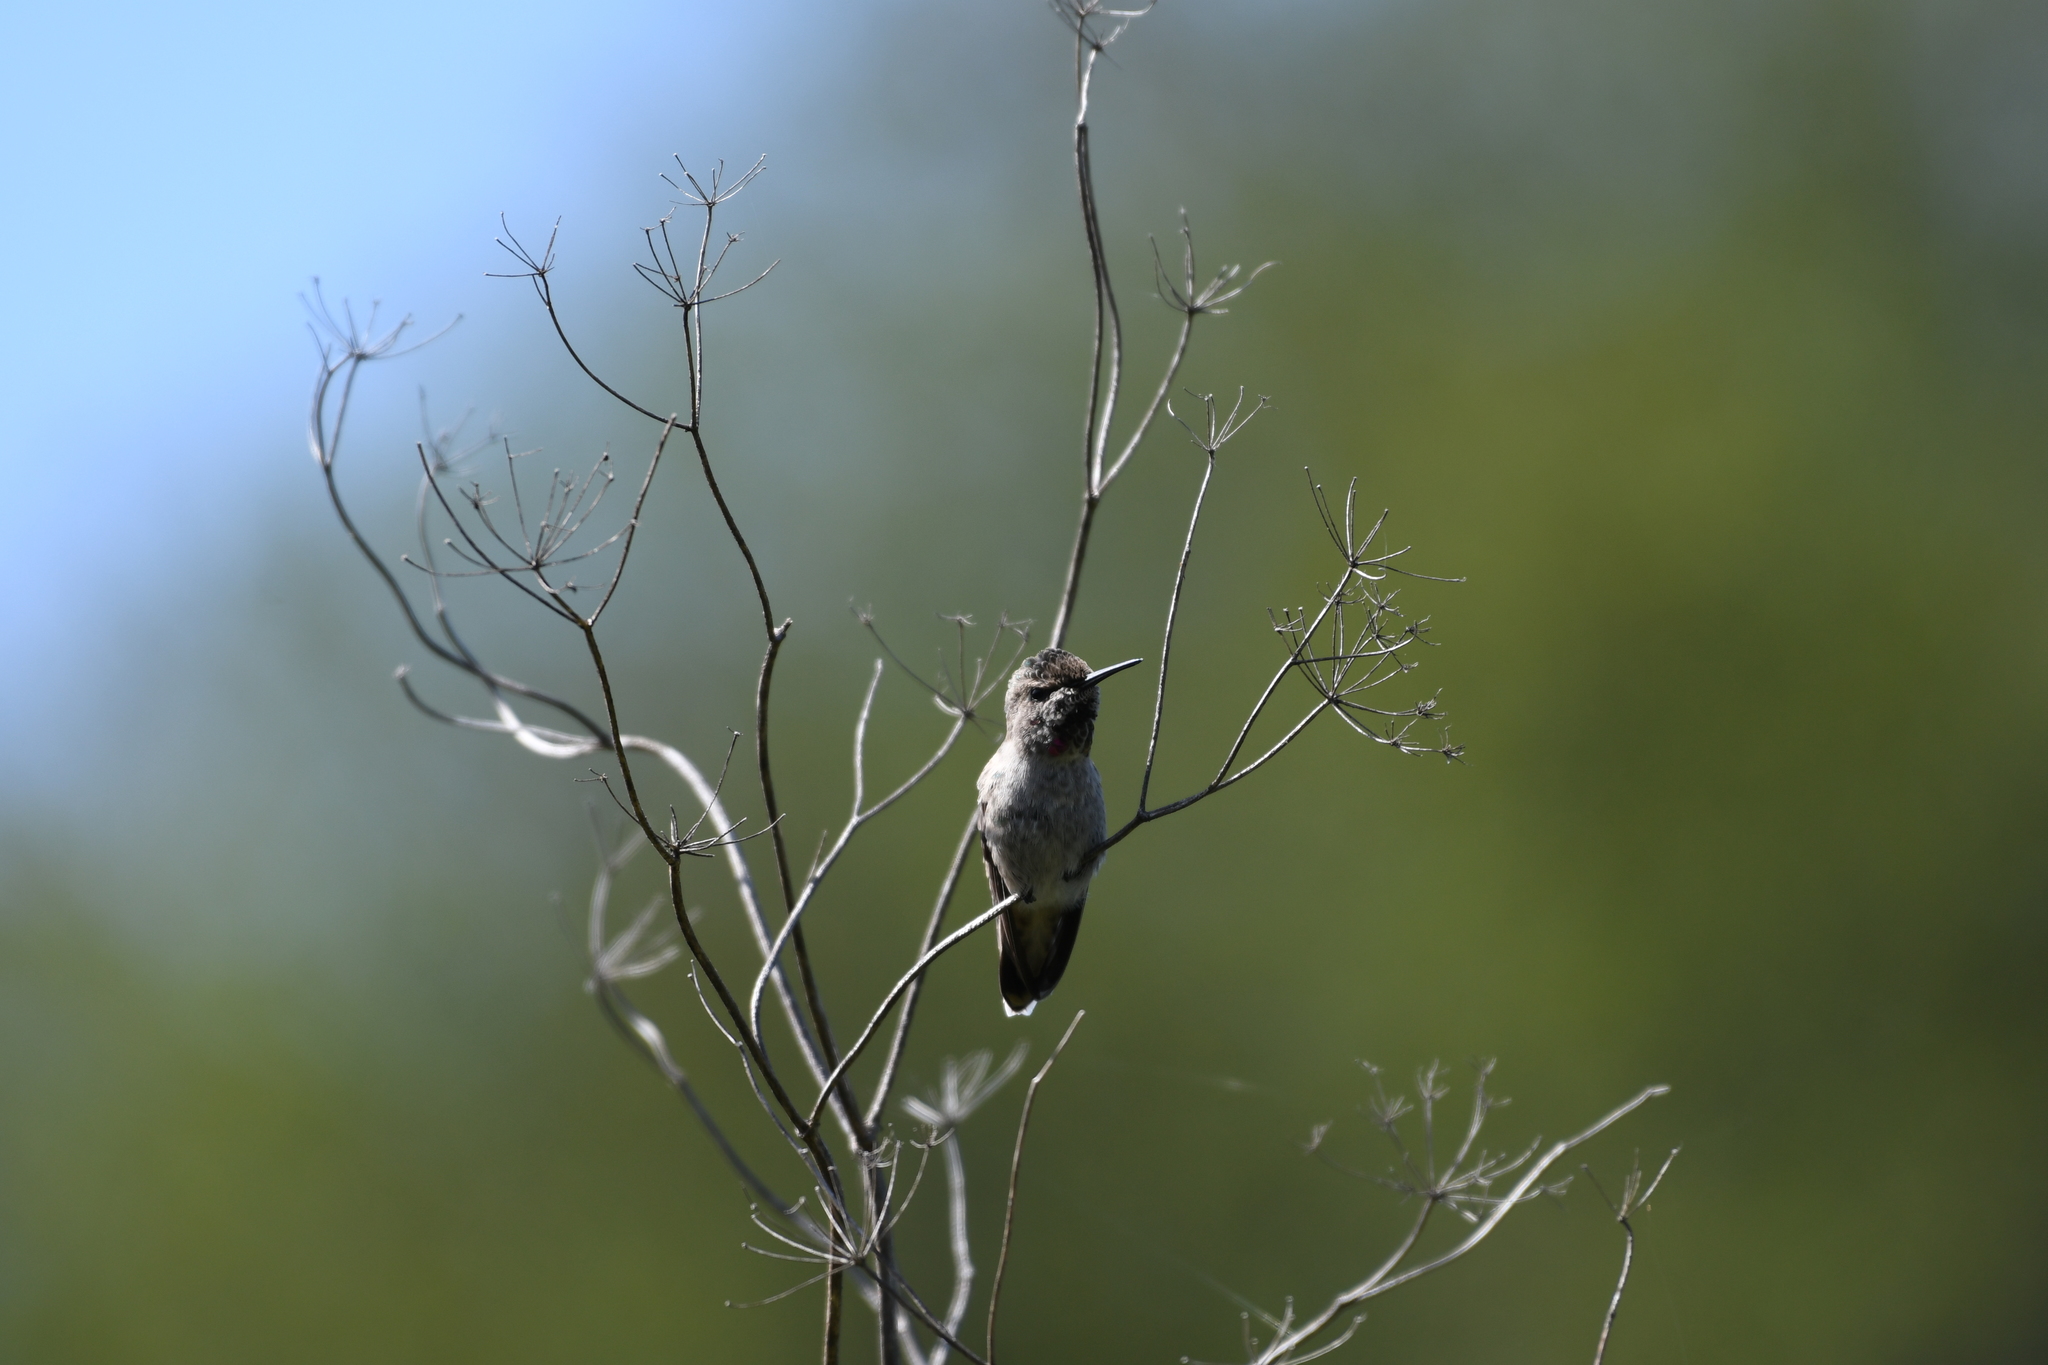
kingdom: Animalia
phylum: Chordata
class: Aves
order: Apodiformes
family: Trochilidae
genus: Calypte
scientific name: Calypte anna
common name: Anna's hummingbird
